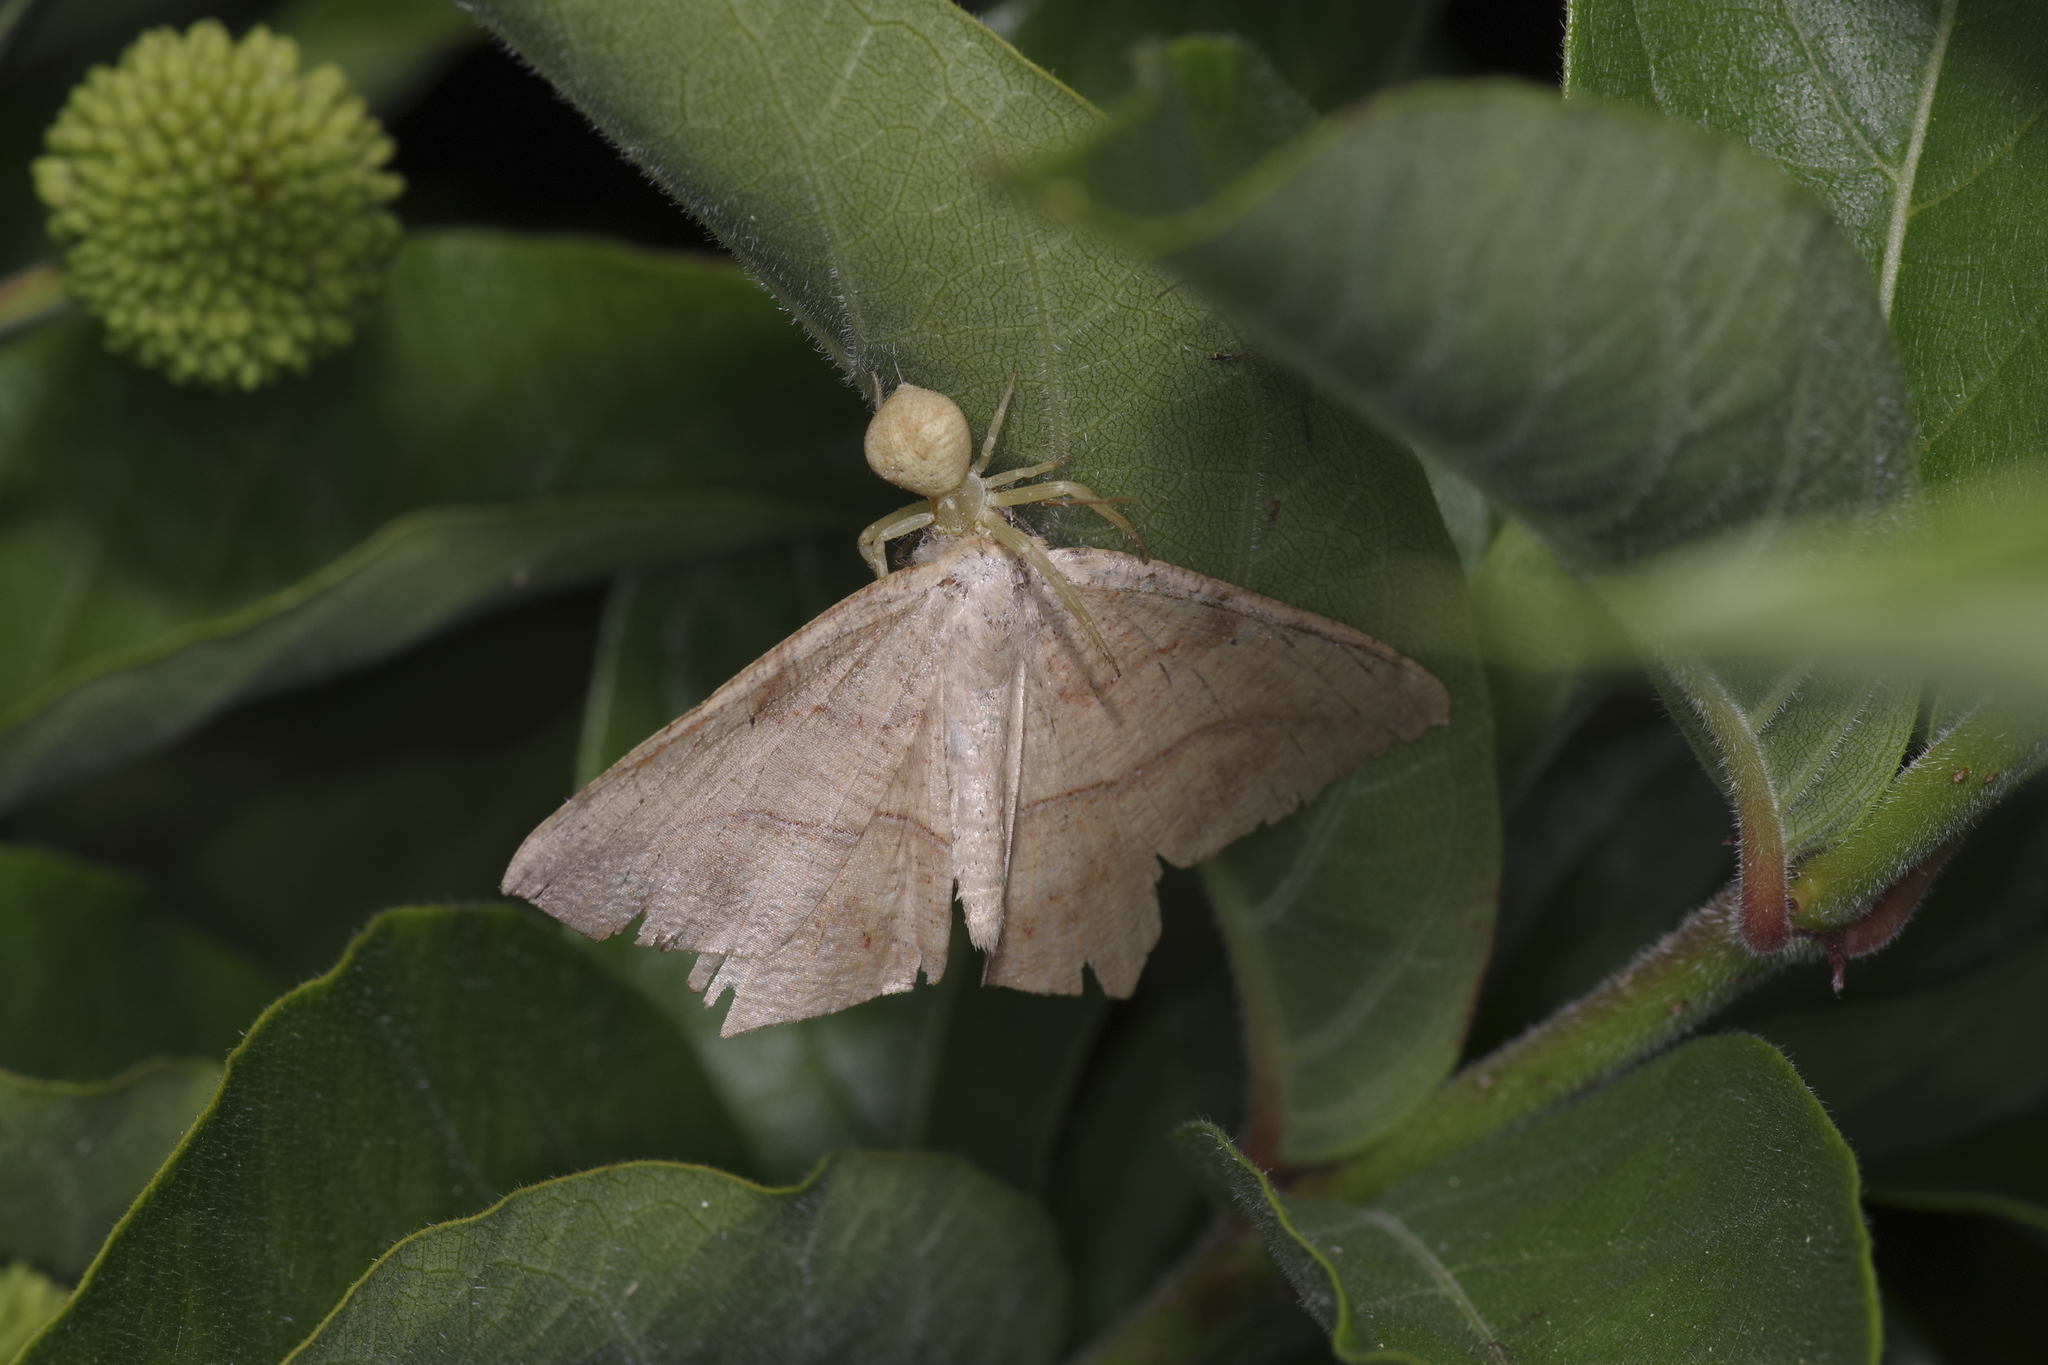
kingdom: Animalia
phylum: Arthropoda
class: Insecta
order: Lepidoptera
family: Geometridae
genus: Prochoerodes
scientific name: Prochoerodes lineola
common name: Large maple spanworm
